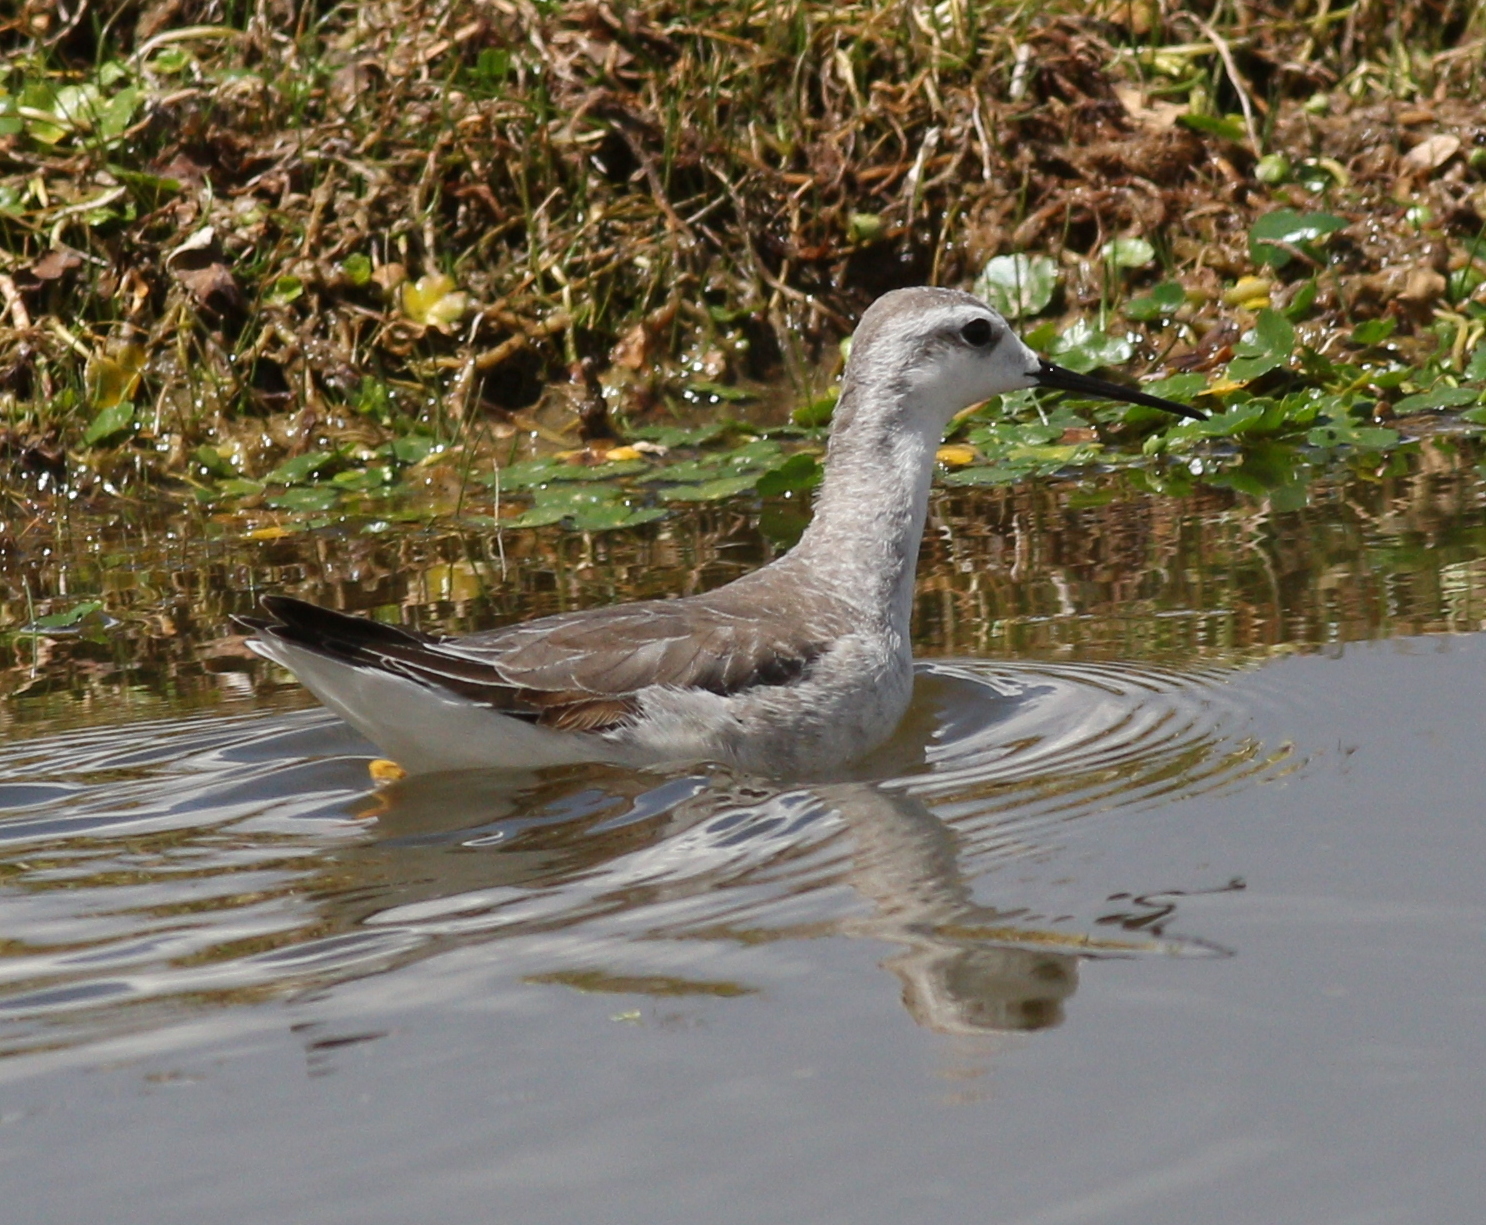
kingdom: Animalia
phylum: Chordata
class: Aves
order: Charadriiformes
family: Scolopacidae
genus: Phalaropus
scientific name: Phalaropus tricolor
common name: Wilson's phalarope
